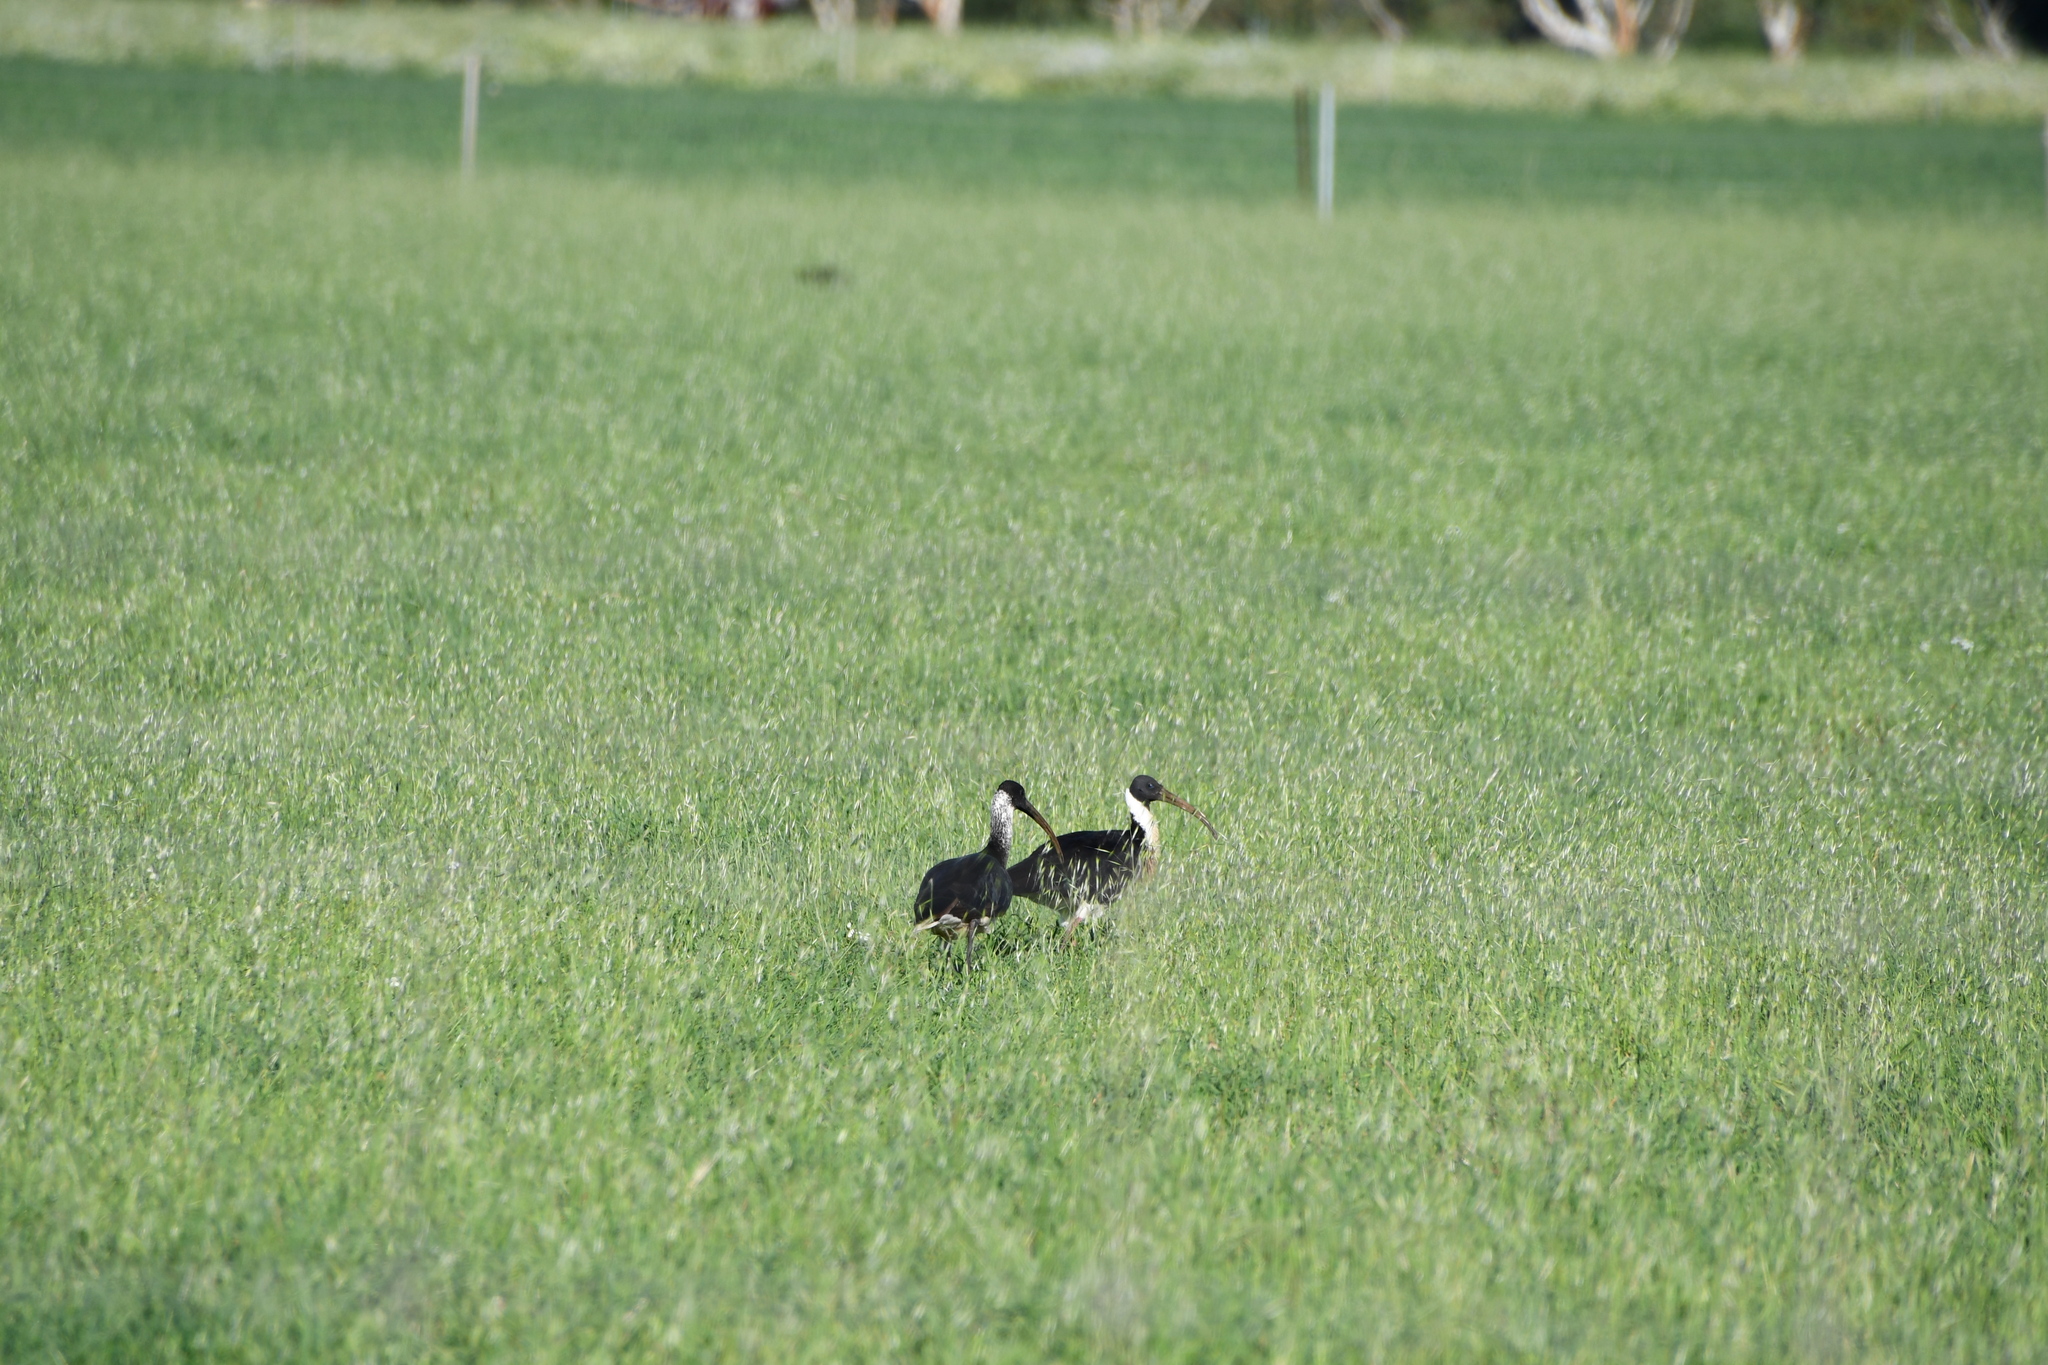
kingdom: Animalia
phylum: Chordata
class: Aves
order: Pelecaniformes
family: Threskiornithidae
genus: Threskiornis
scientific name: Threskiornis spinicollis
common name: Straw-necked ibis
